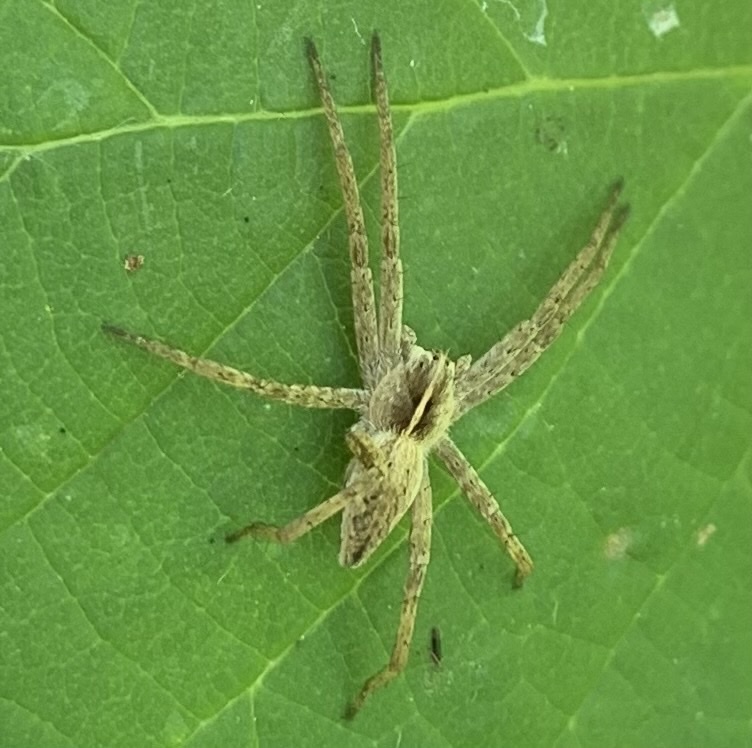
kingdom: Animalia
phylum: Arthropoda
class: Arachnida
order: Araneae
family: Pisauridae
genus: Pisaura
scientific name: Pisaura mirabilis
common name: Tent spider
